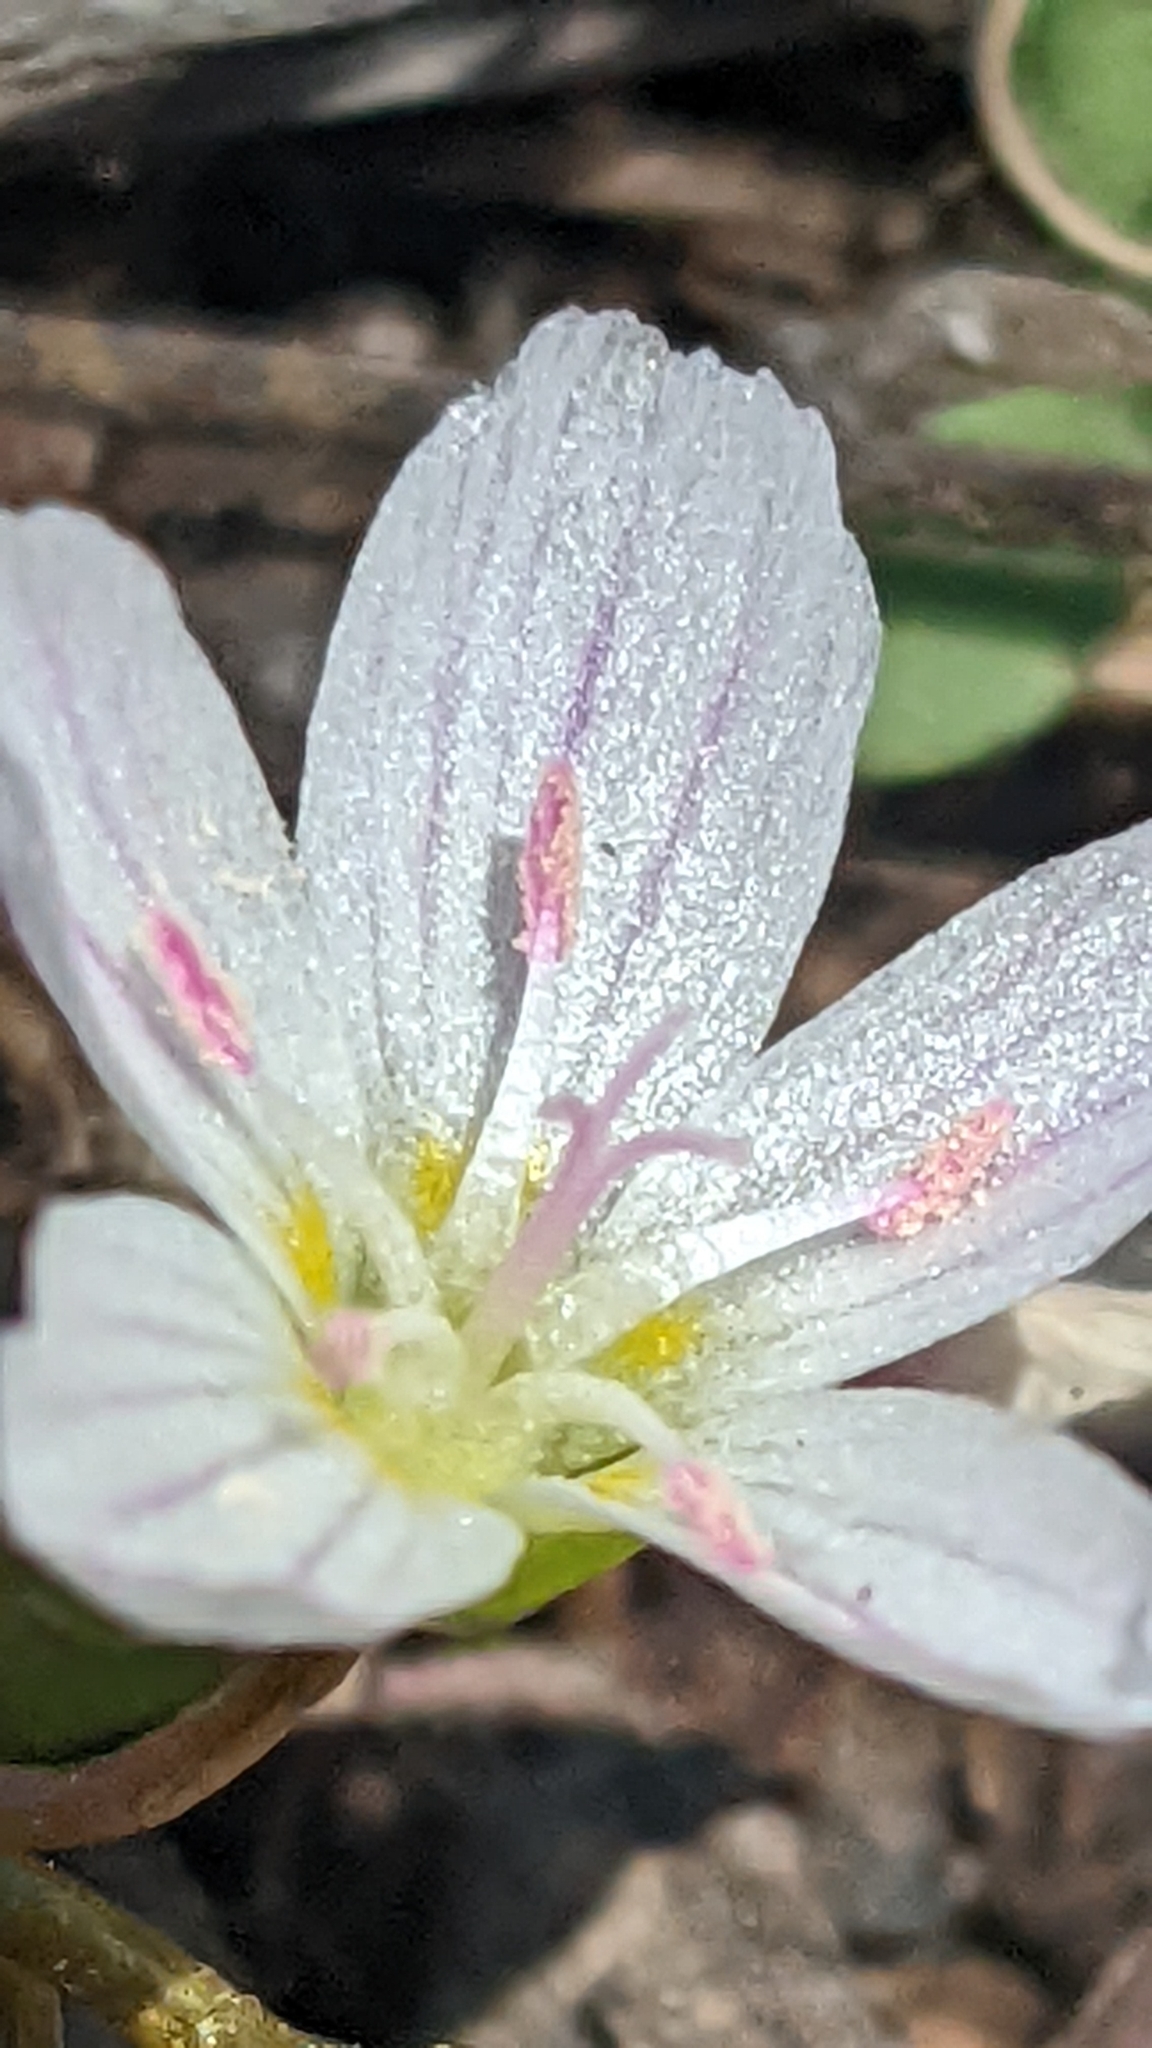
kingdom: Plantae
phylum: Tracheophyta
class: Magnoliopsida
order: Caryophyllales
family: Montiaceae
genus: Claytonia
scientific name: Claytonia lanceolata
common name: Western spring-beauty
